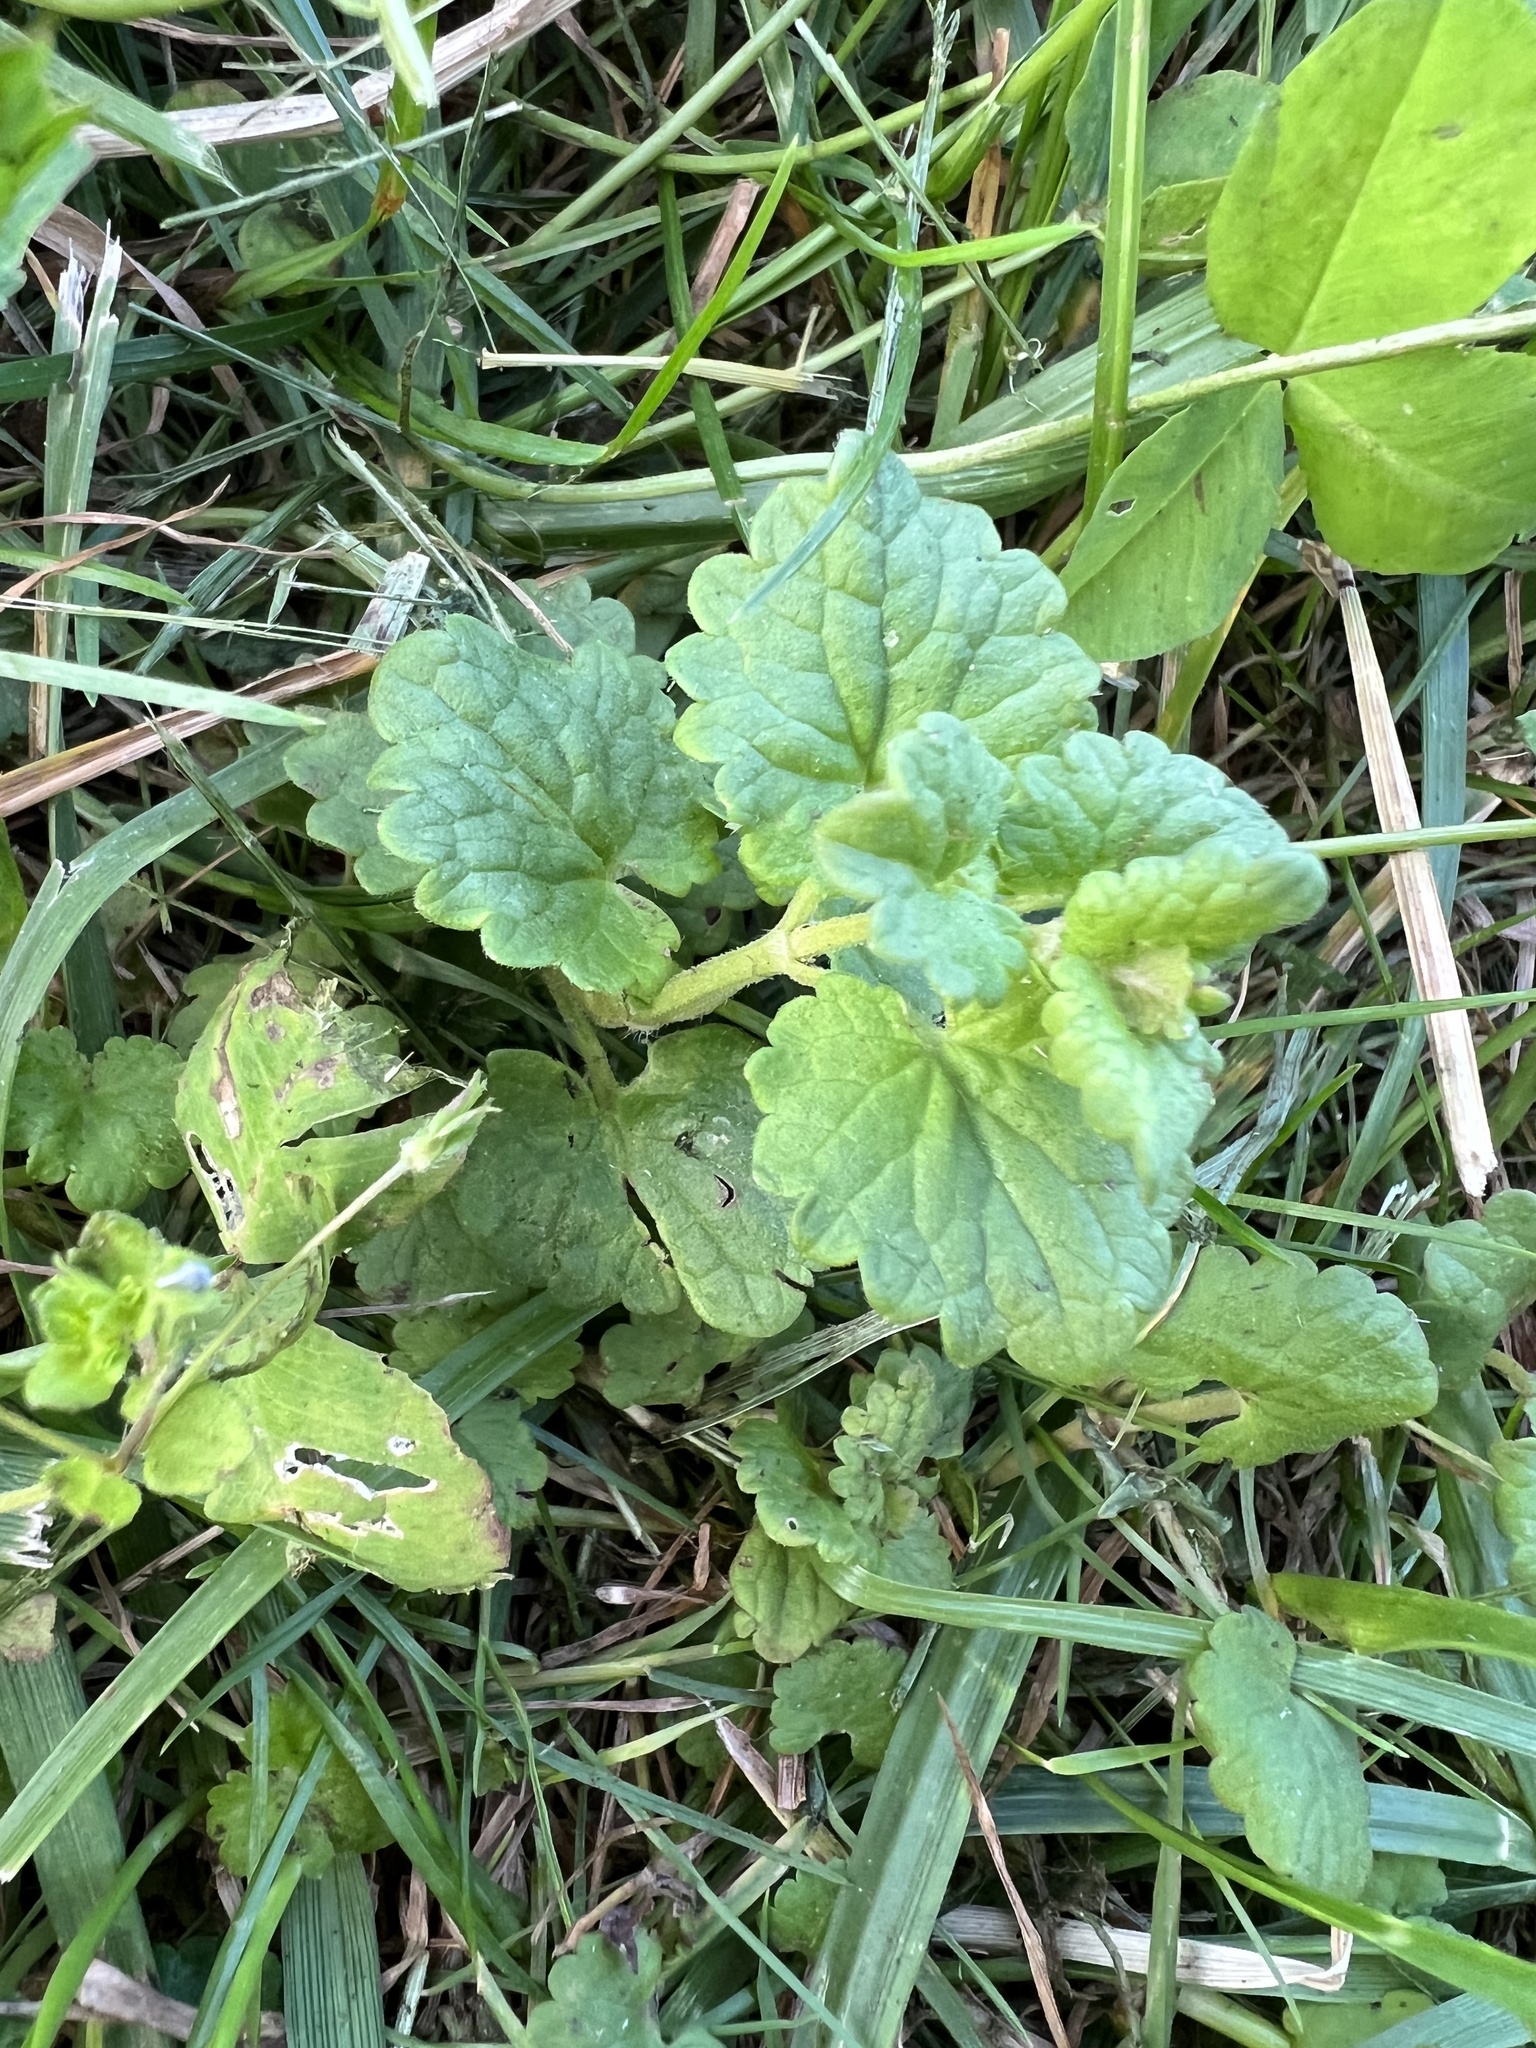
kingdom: Plantae
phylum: Tracheophyta
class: Magnoliopsida
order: Lamiales
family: Lamiaceae
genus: Glechoma
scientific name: Glechoma hederacea
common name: Ground ivy
